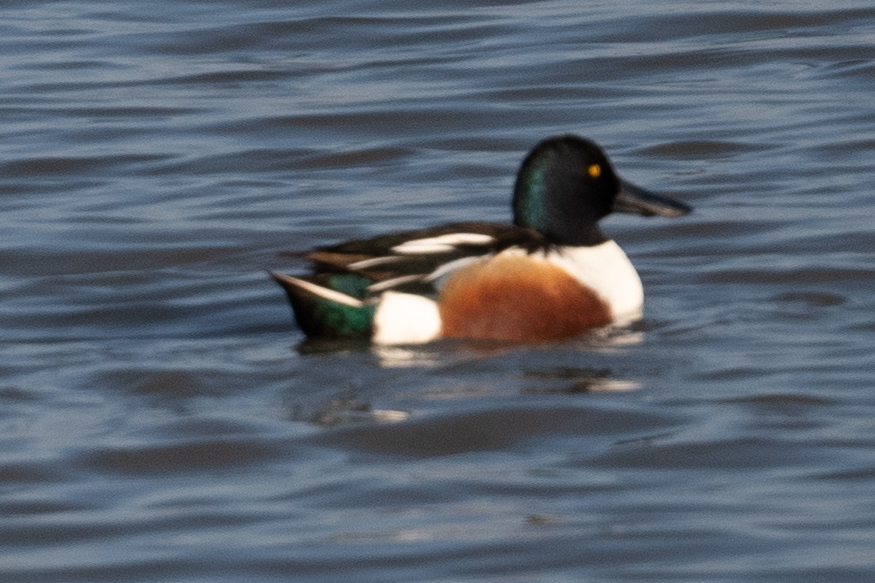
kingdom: Animalia
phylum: Chordata
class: Aves
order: Anseriformes
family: Anatidae
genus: Spatula
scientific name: Spatula clypeata
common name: Northern shoveler
